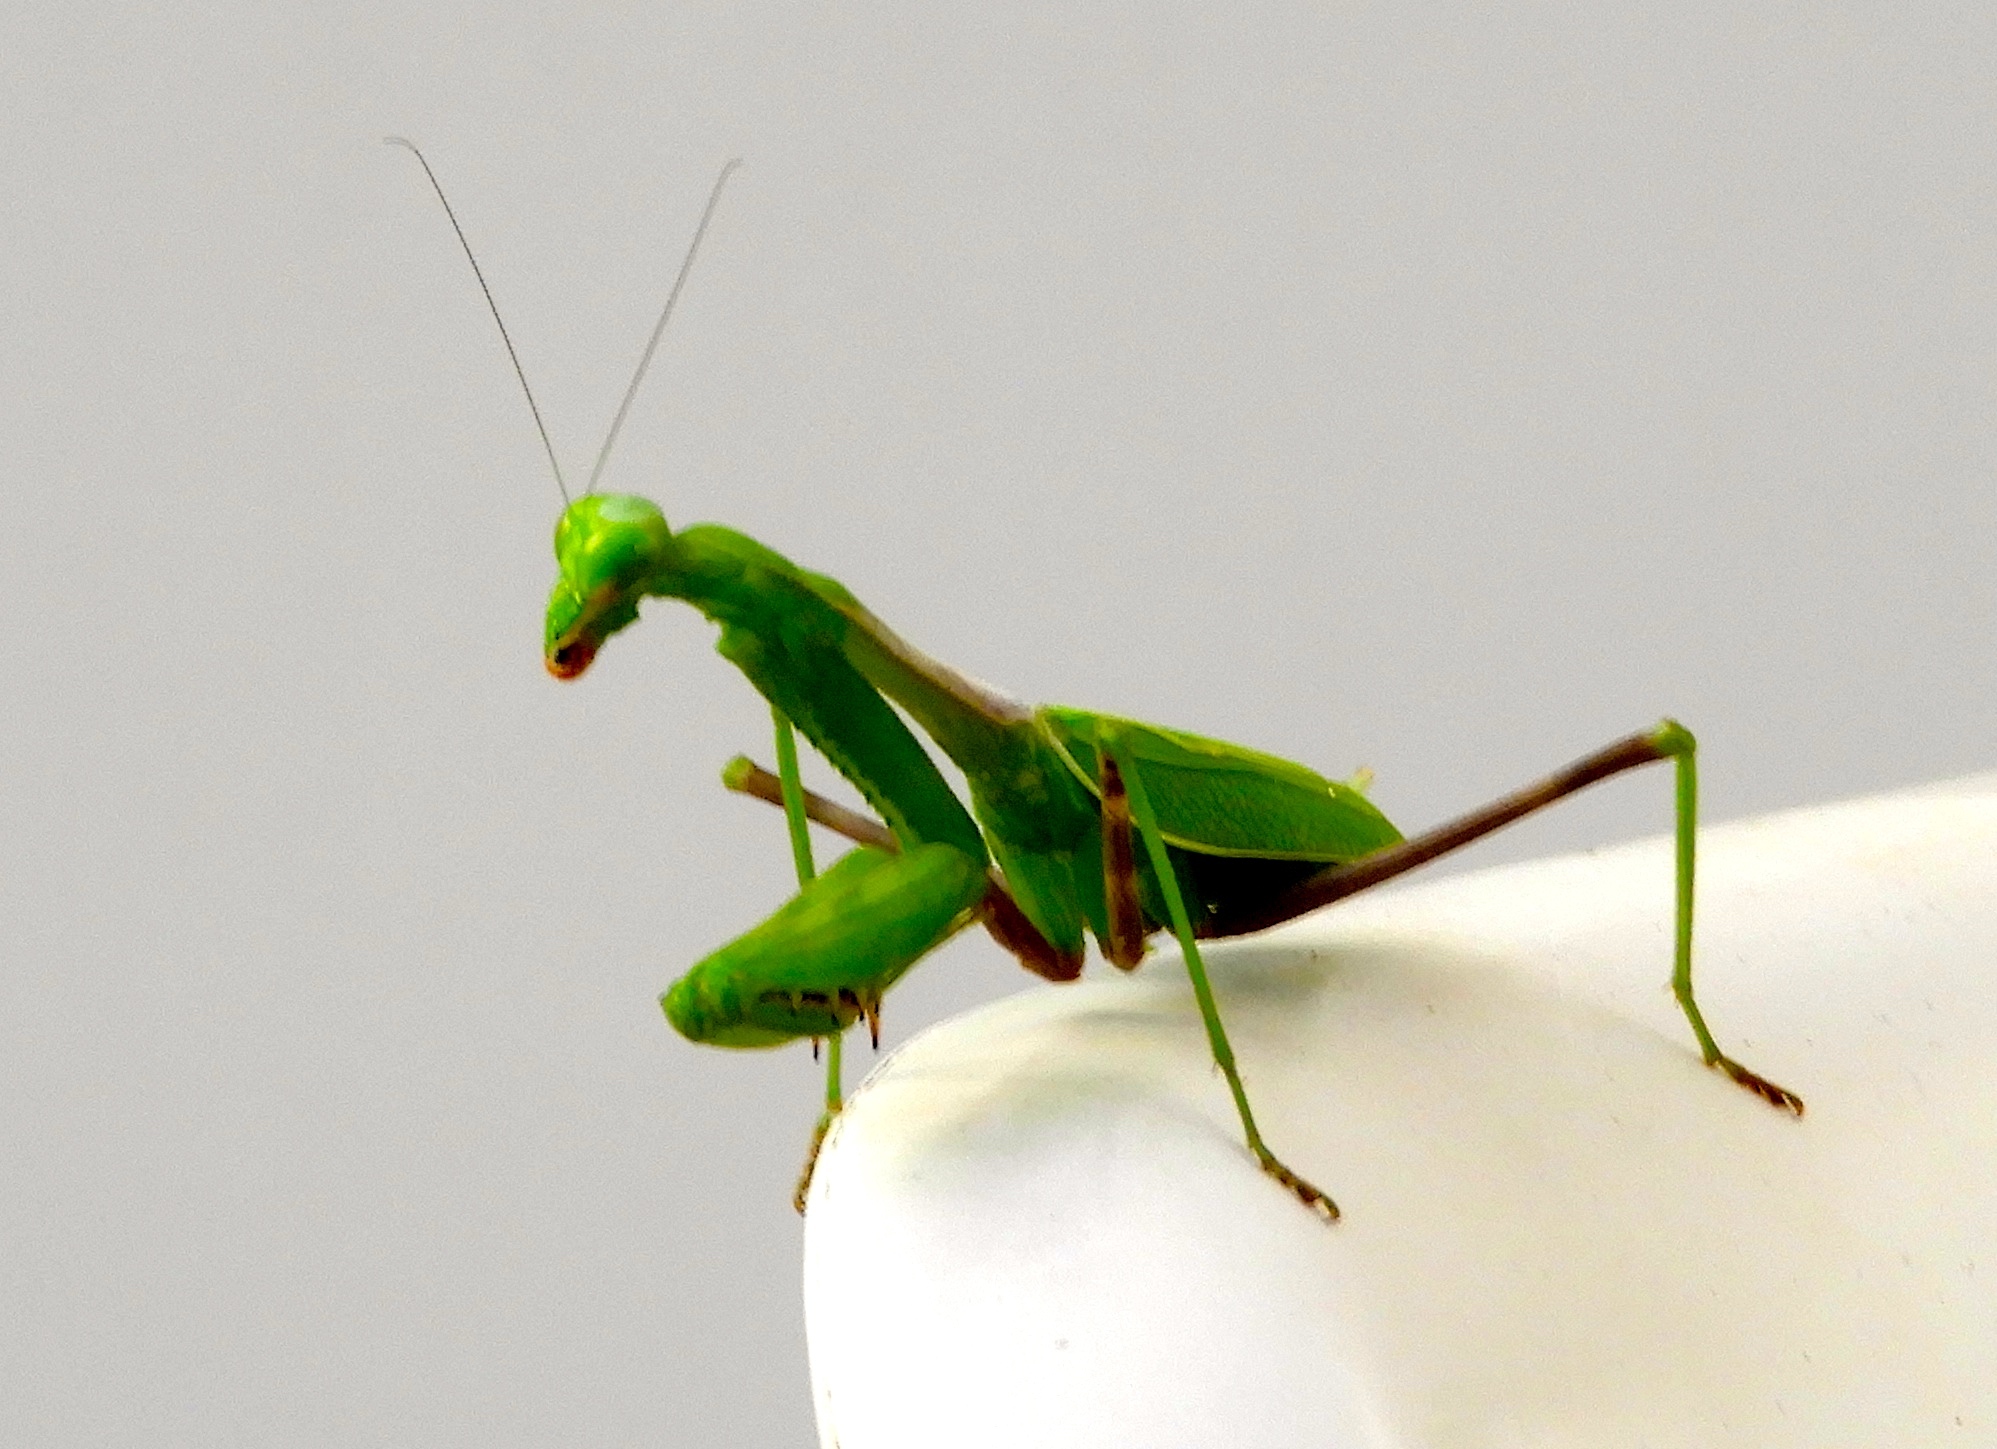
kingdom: Animalia
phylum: Arthropoda
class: Insecta
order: Mantodea
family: Mantidae
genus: Stagmomantis
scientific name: Stagmomantis limbata
